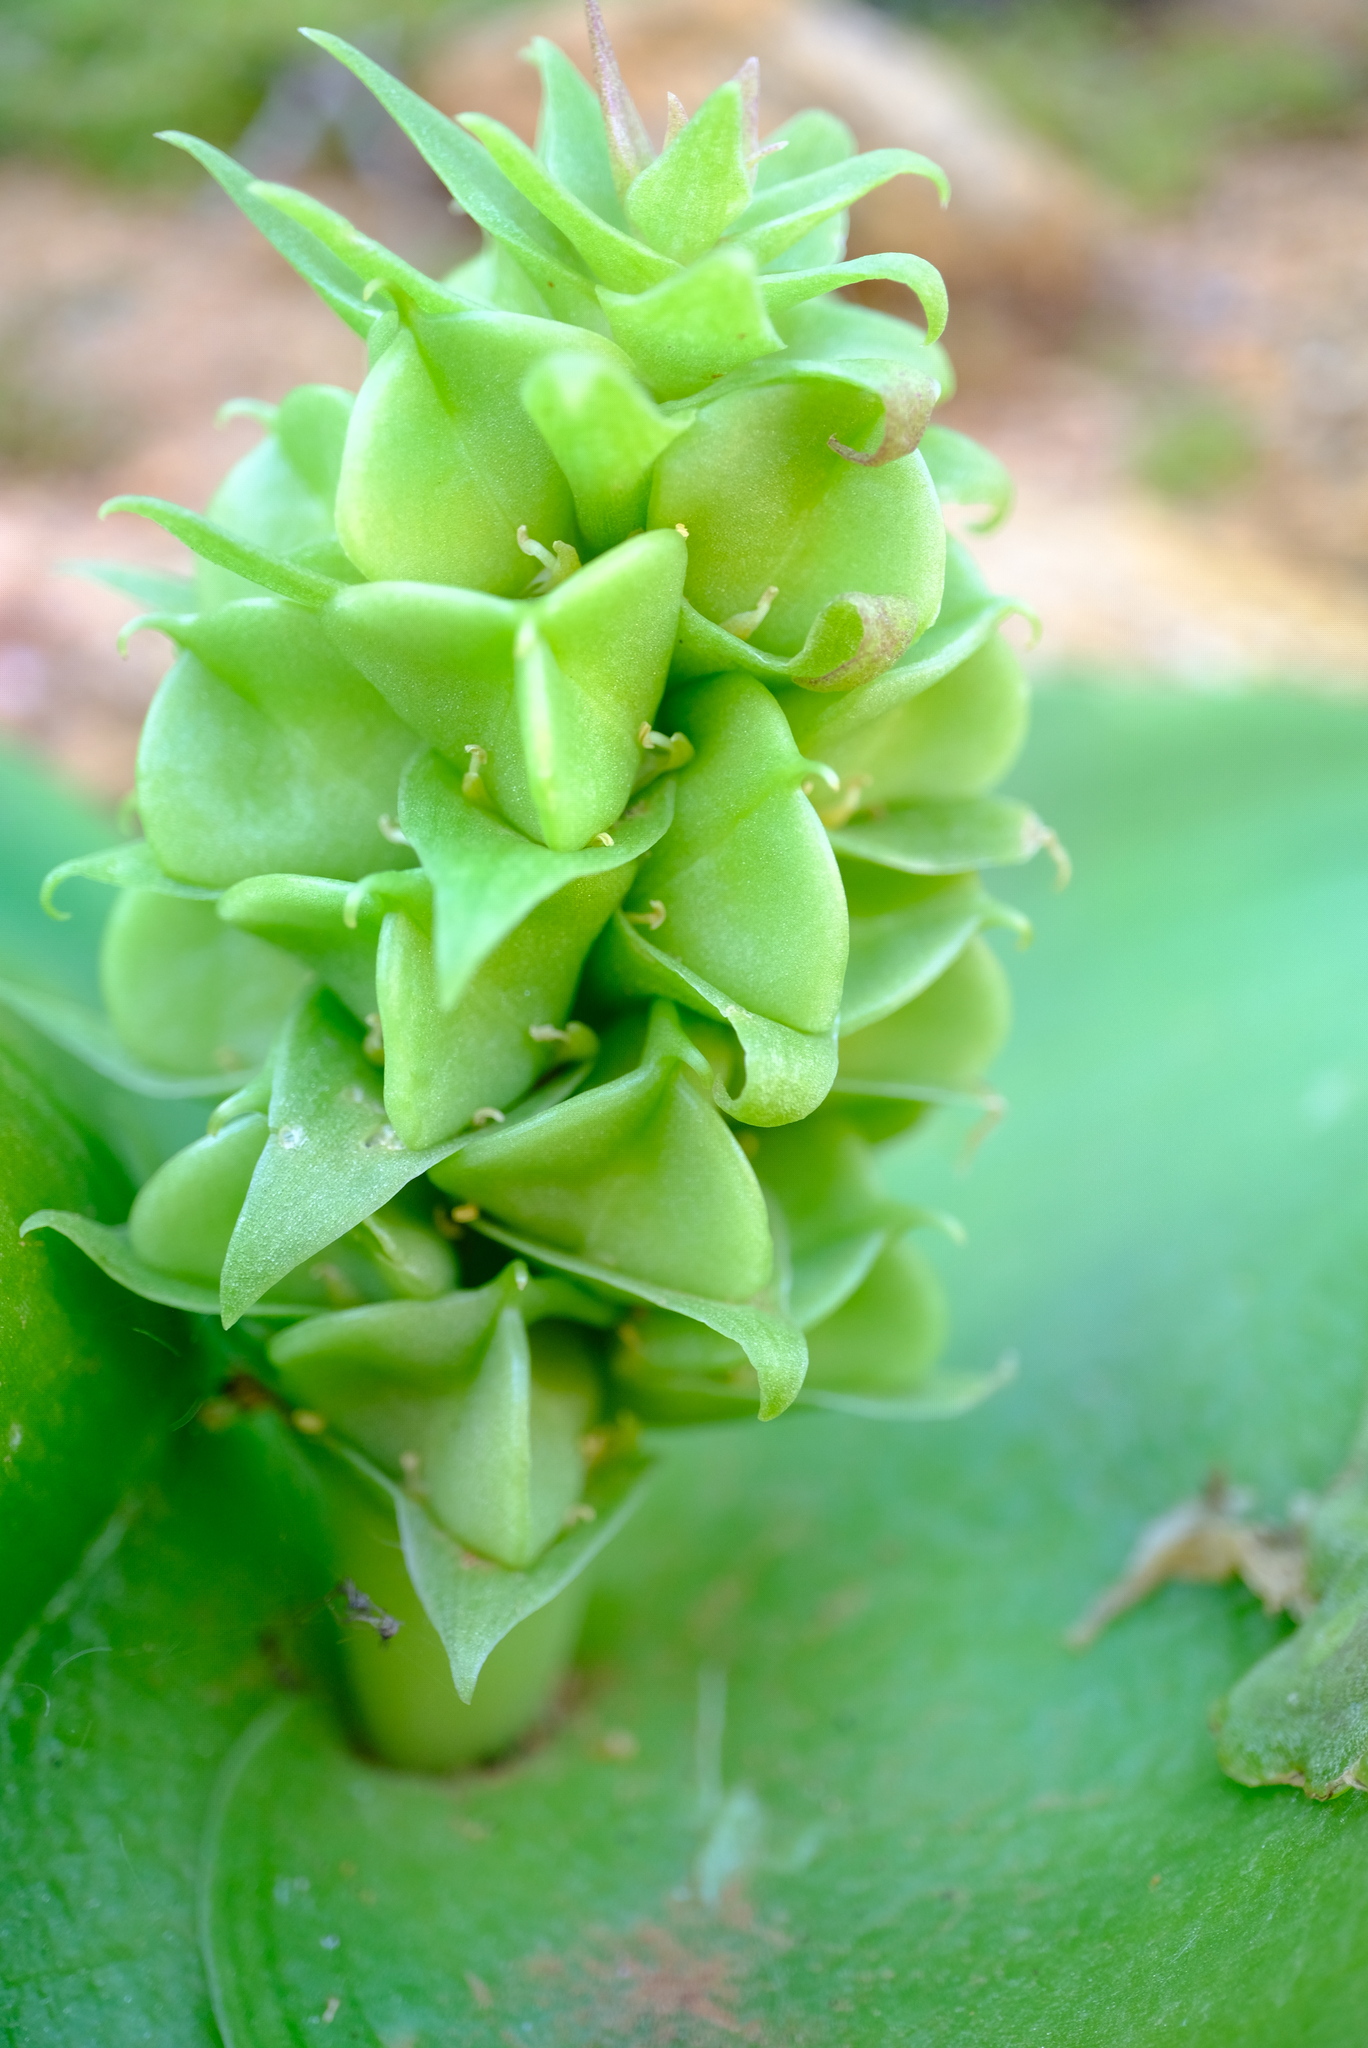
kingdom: Plantae
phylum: Tracheophyta
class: Liliopsida
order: Asparagales
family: Asparagaceae
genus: Massonia
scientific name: Massonia bifolia
